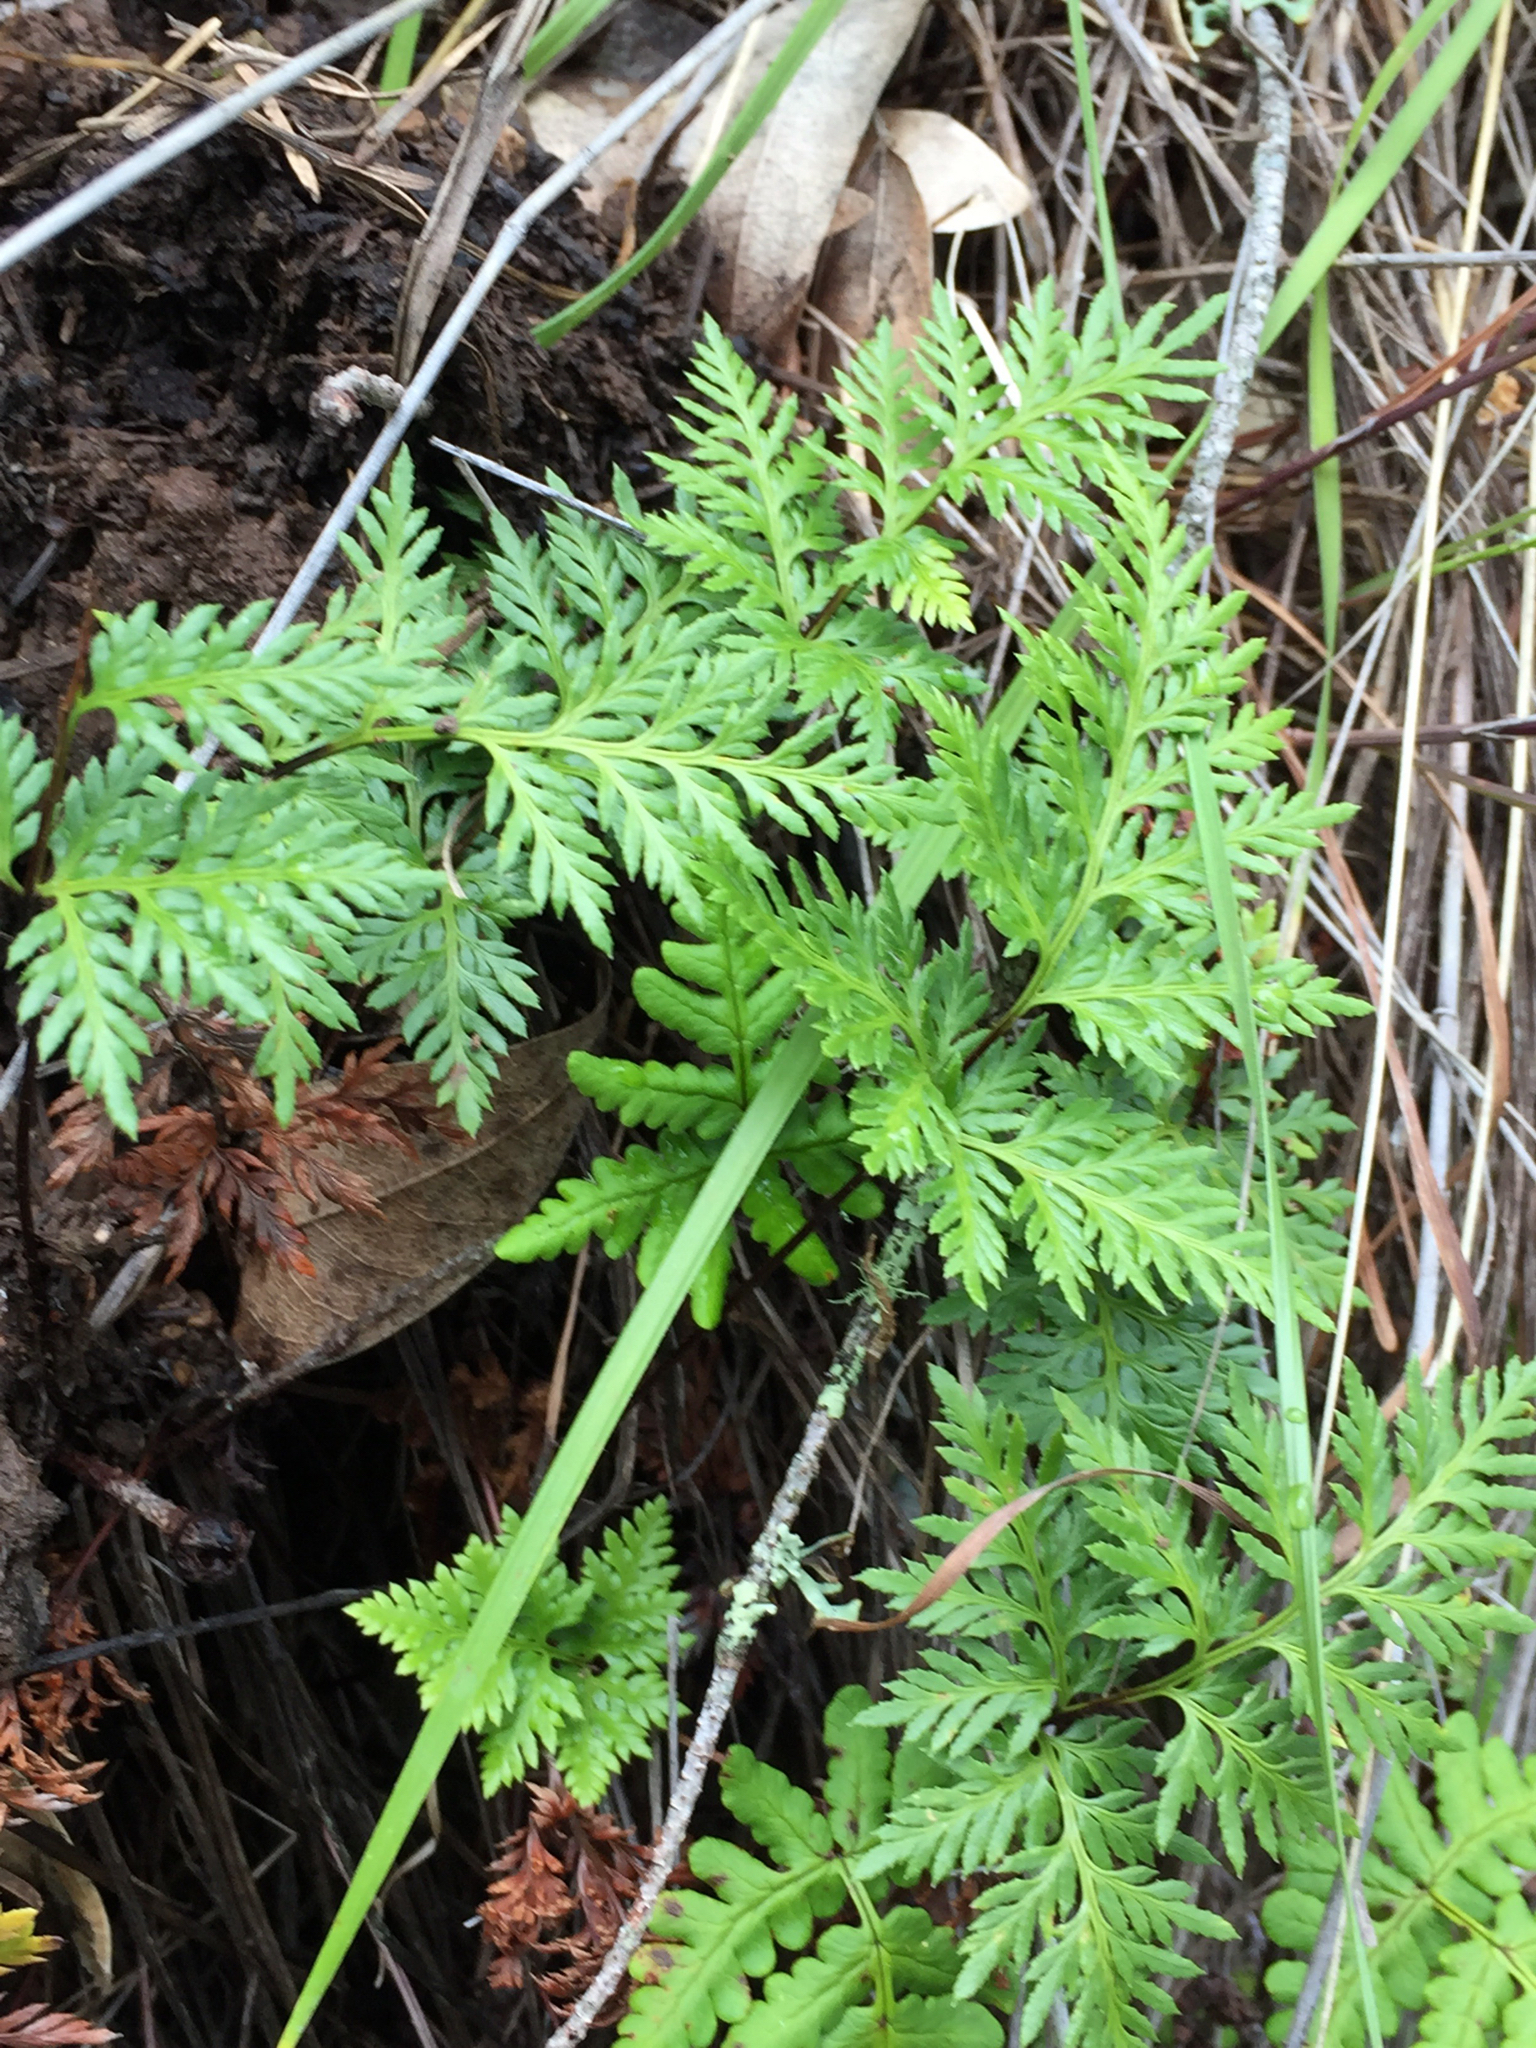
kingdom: Plantae
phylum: Tracheophyta
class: Polypodiopsida
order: Polypodiales
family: Pteridaceae
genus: Aspidotis
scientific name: Aspidotis densa
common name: Indian's dream
